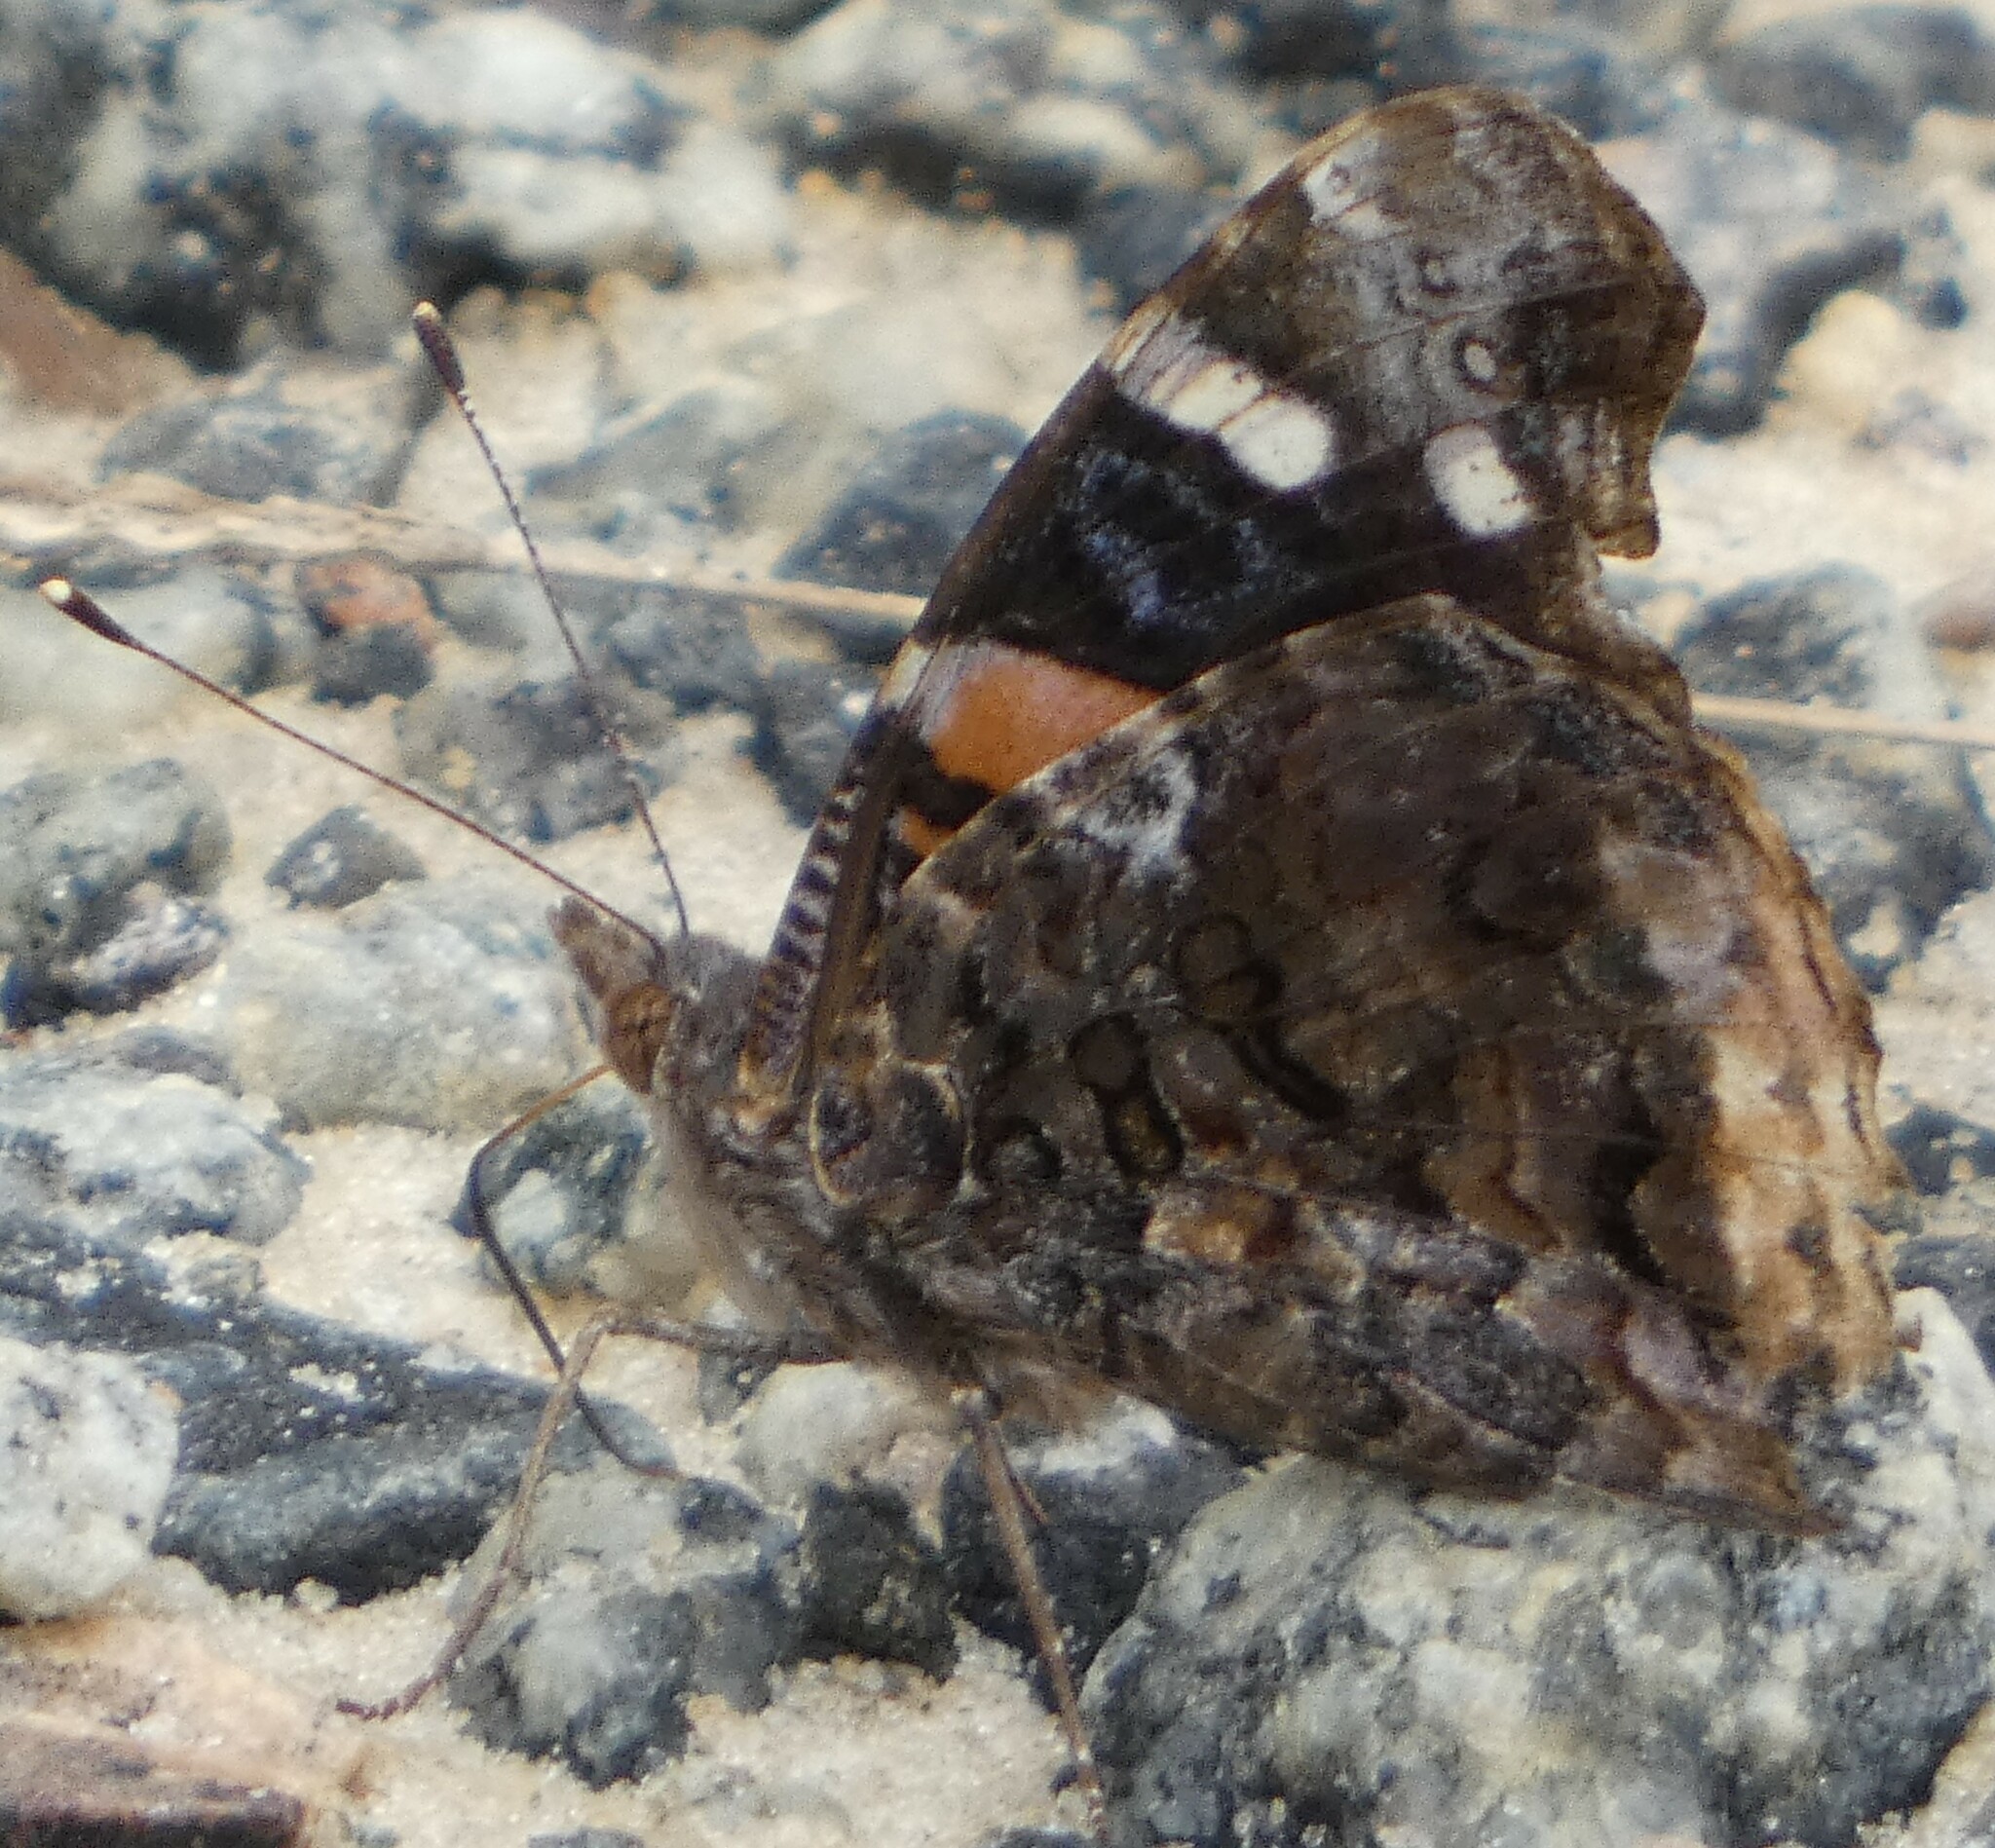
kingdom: Animalia
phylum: Arthropoda
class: Insecta
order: Lepidoptera
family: Nymphalidae
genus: Vanessa
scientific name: Vanessa atalanta
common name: Red admiral
